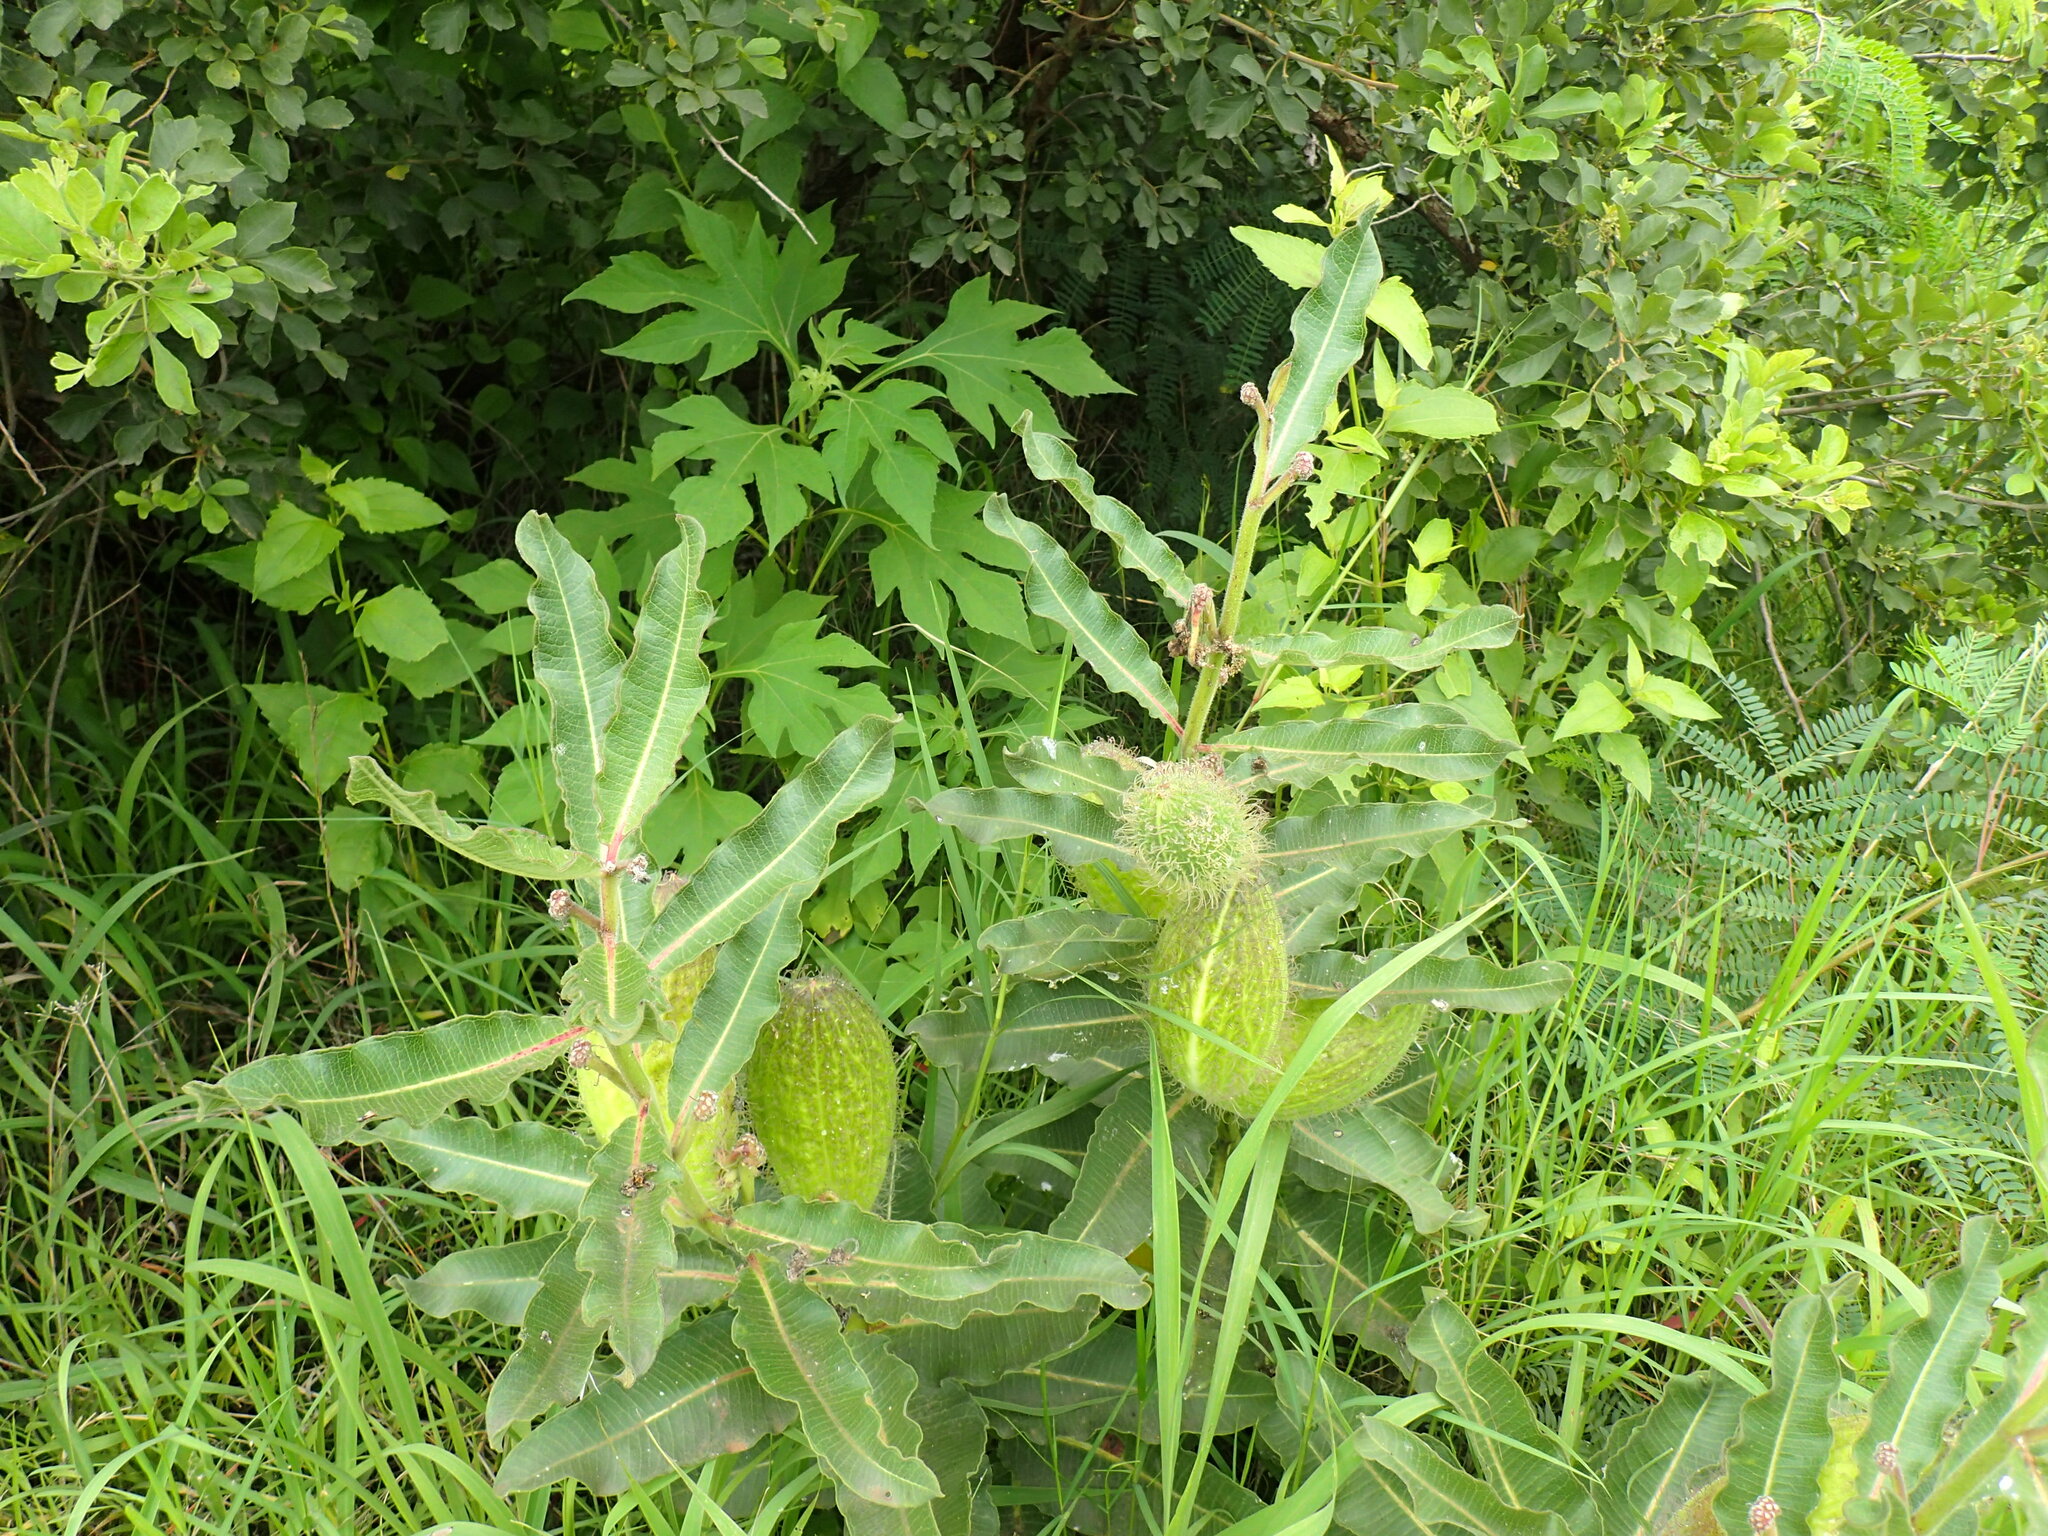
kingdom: Plantae
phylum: Tracheophyta
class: Magnoliopsida
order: Gentianales
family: Apocynaceae
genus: Xysmalobium
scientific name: Xysmalobium undulatum
